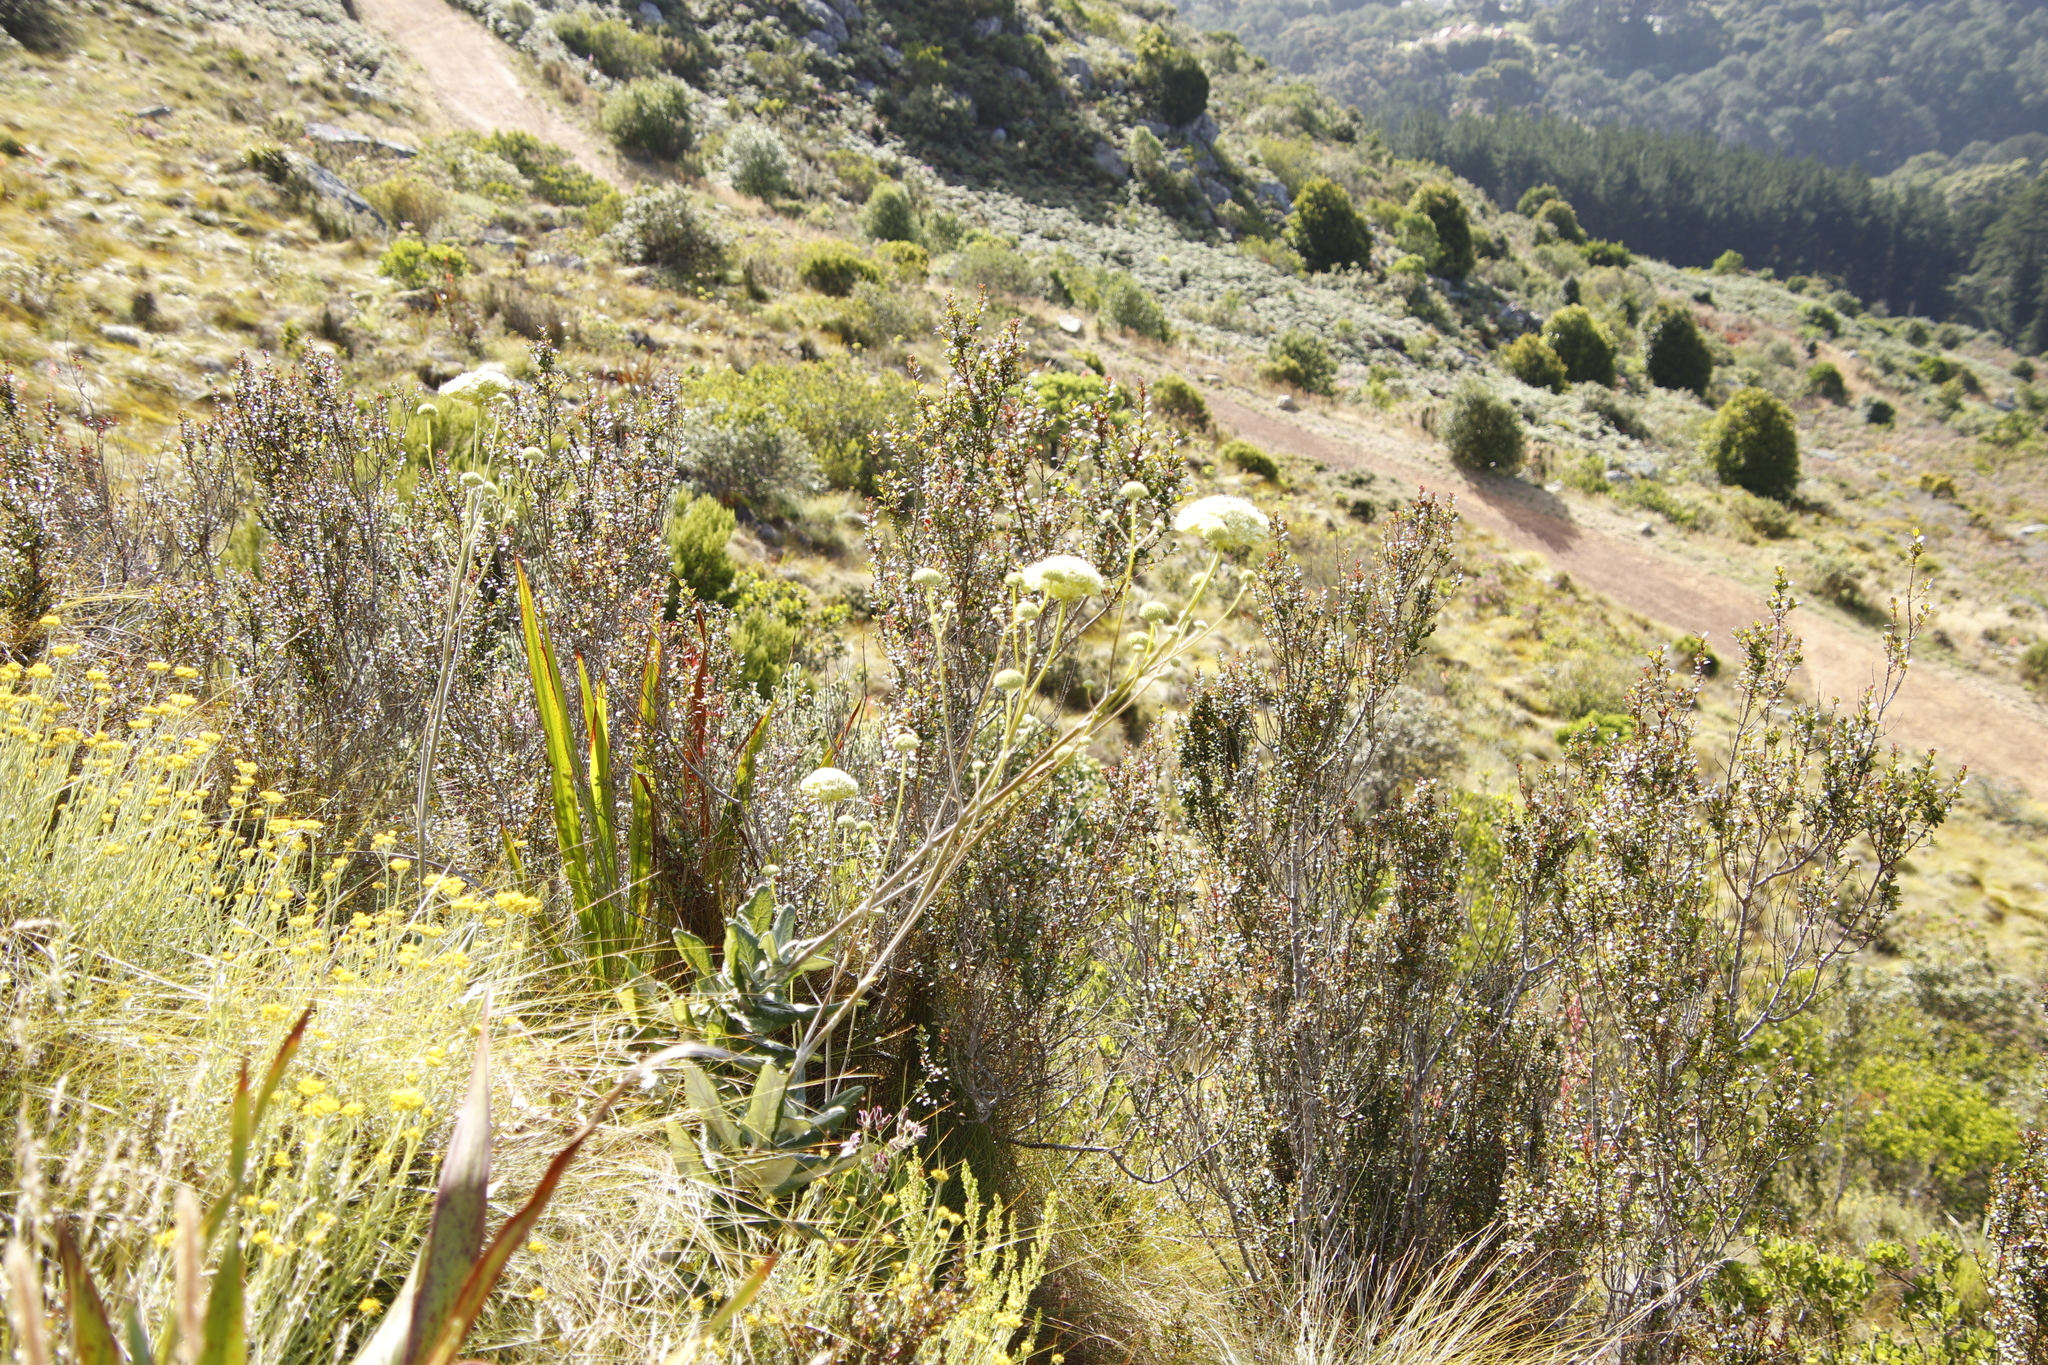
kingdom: Plantae
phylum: Tracheophyta
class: Magnoliopsida
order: Apiales
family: Apiaceae
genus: Hermas
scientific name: Hermas villosa
